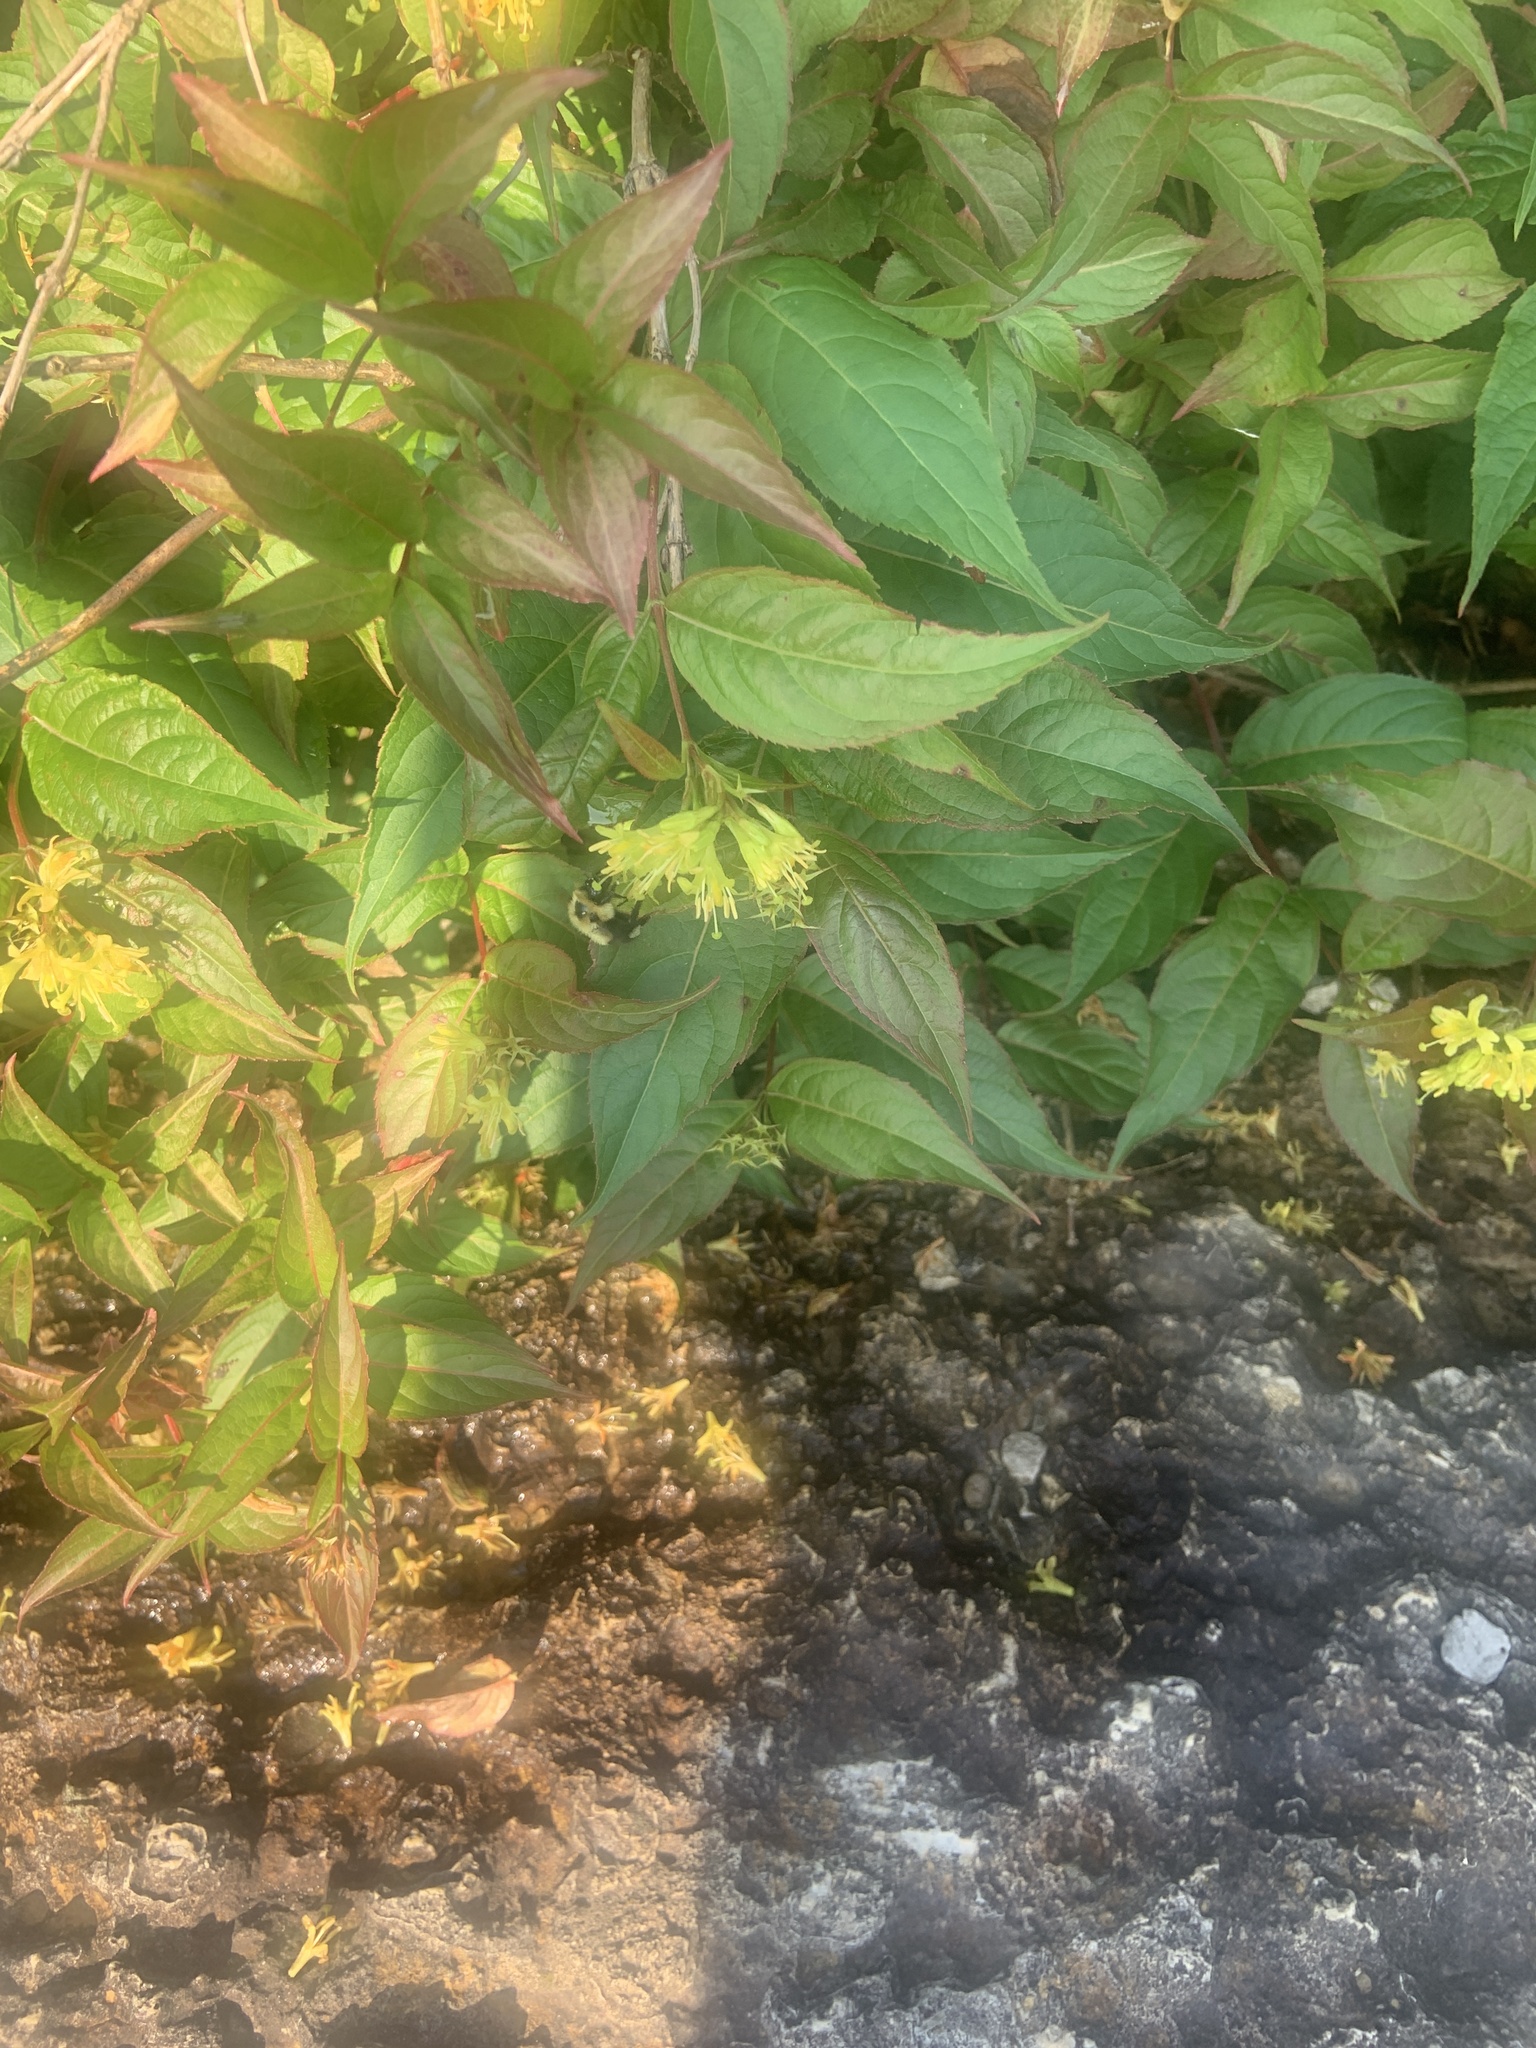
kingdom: Animalia
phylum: Arthropoda
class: Insecta
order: Hymenoptera
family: Apidae
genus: Bombus
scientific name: Bombus bimaculatus
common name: Two-spotted bumble bee
